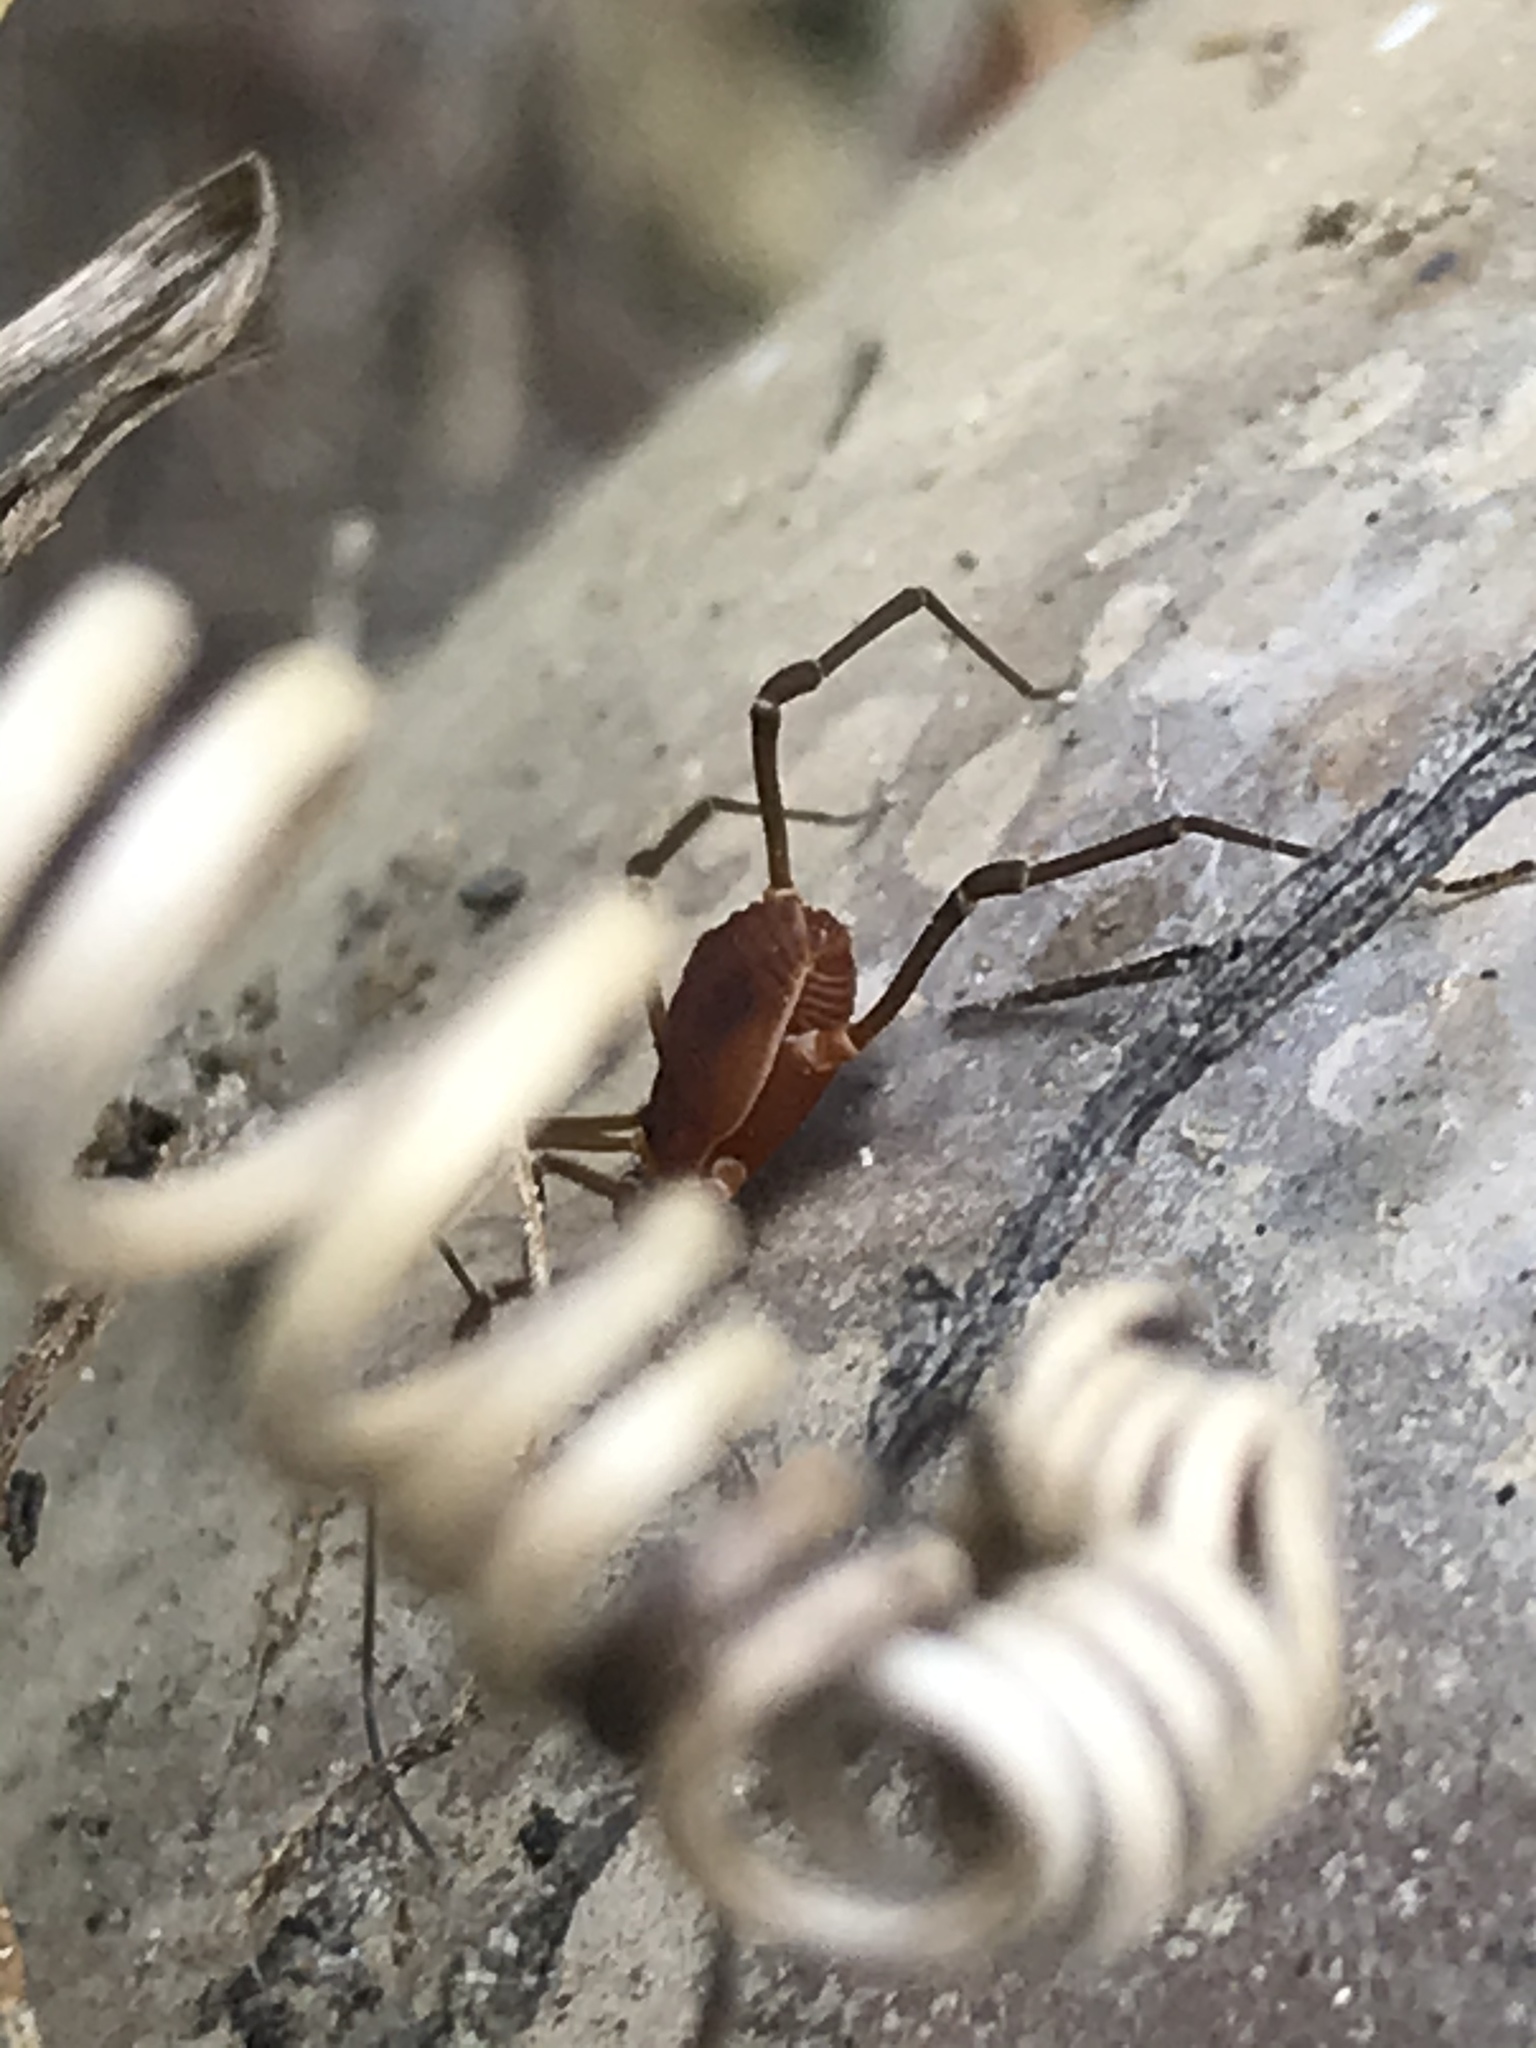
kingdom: Animalia
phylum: Arthropoda
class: Arachnida
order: Opiliones
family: Cosmetidae
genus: Libitioides
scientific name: Libitioides sayi
